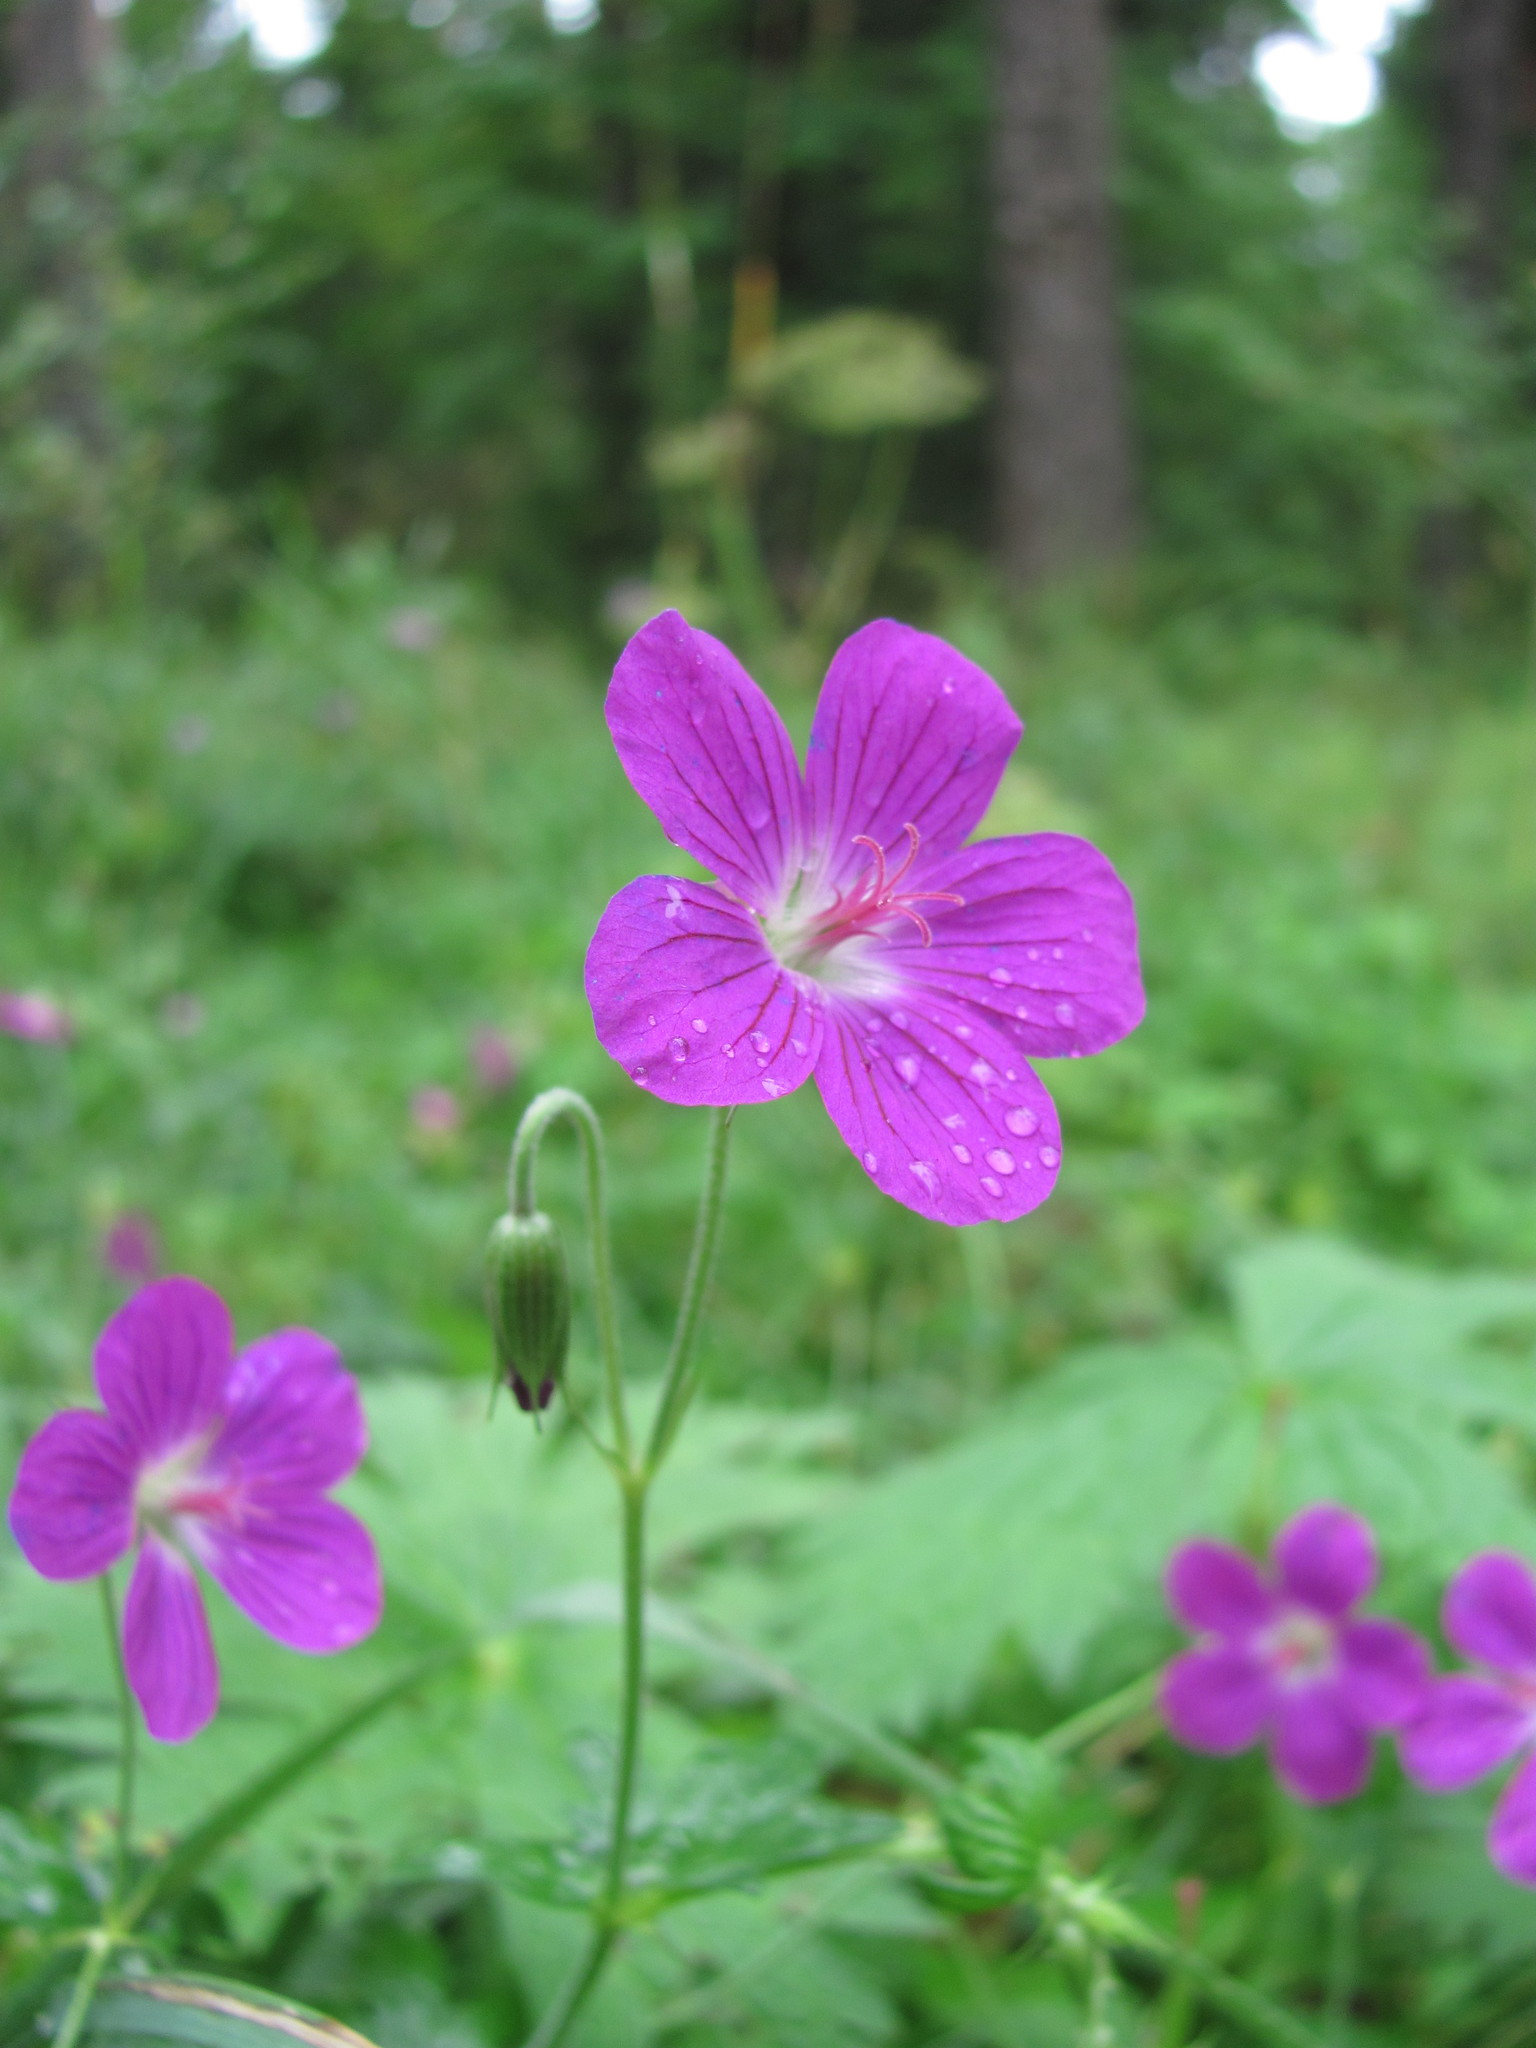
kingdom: Plantae
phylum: Tracheophyta
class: Magnoliopsida
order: Geraniales
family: Geraniaceae
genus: Geranium
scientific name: Geranium palustre
